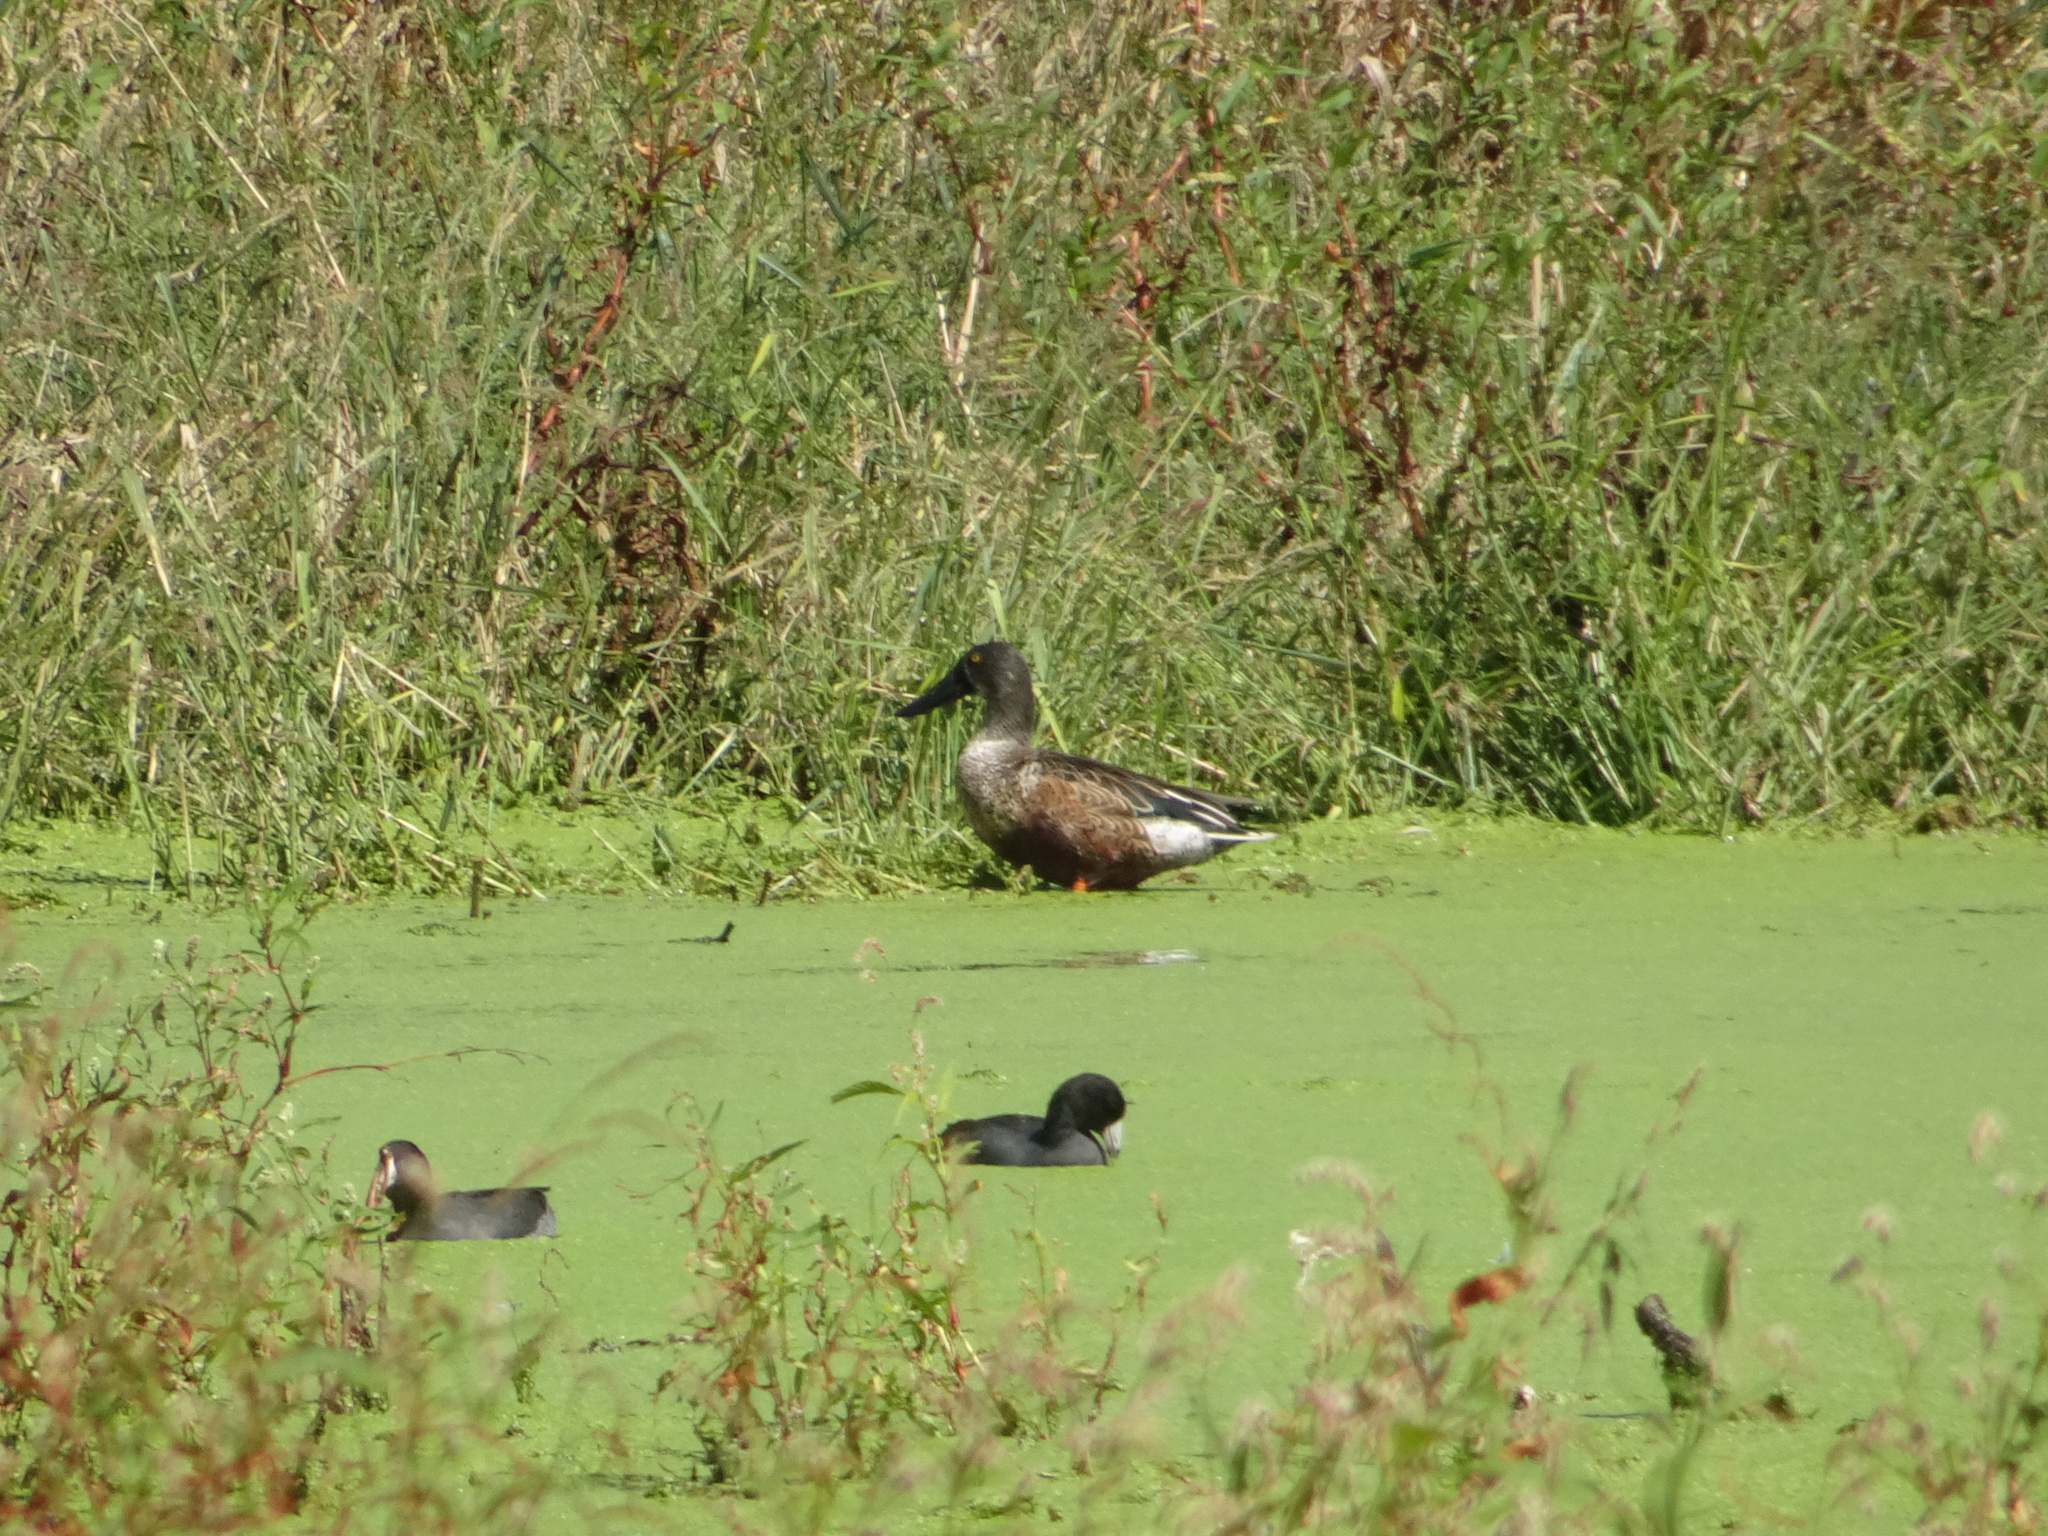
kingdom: Animalia
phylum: Chordata
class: Aves
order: Anseriformes
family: Anatidae
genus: Spatula
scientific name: Spatula clypeata
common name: Northern shoveler
